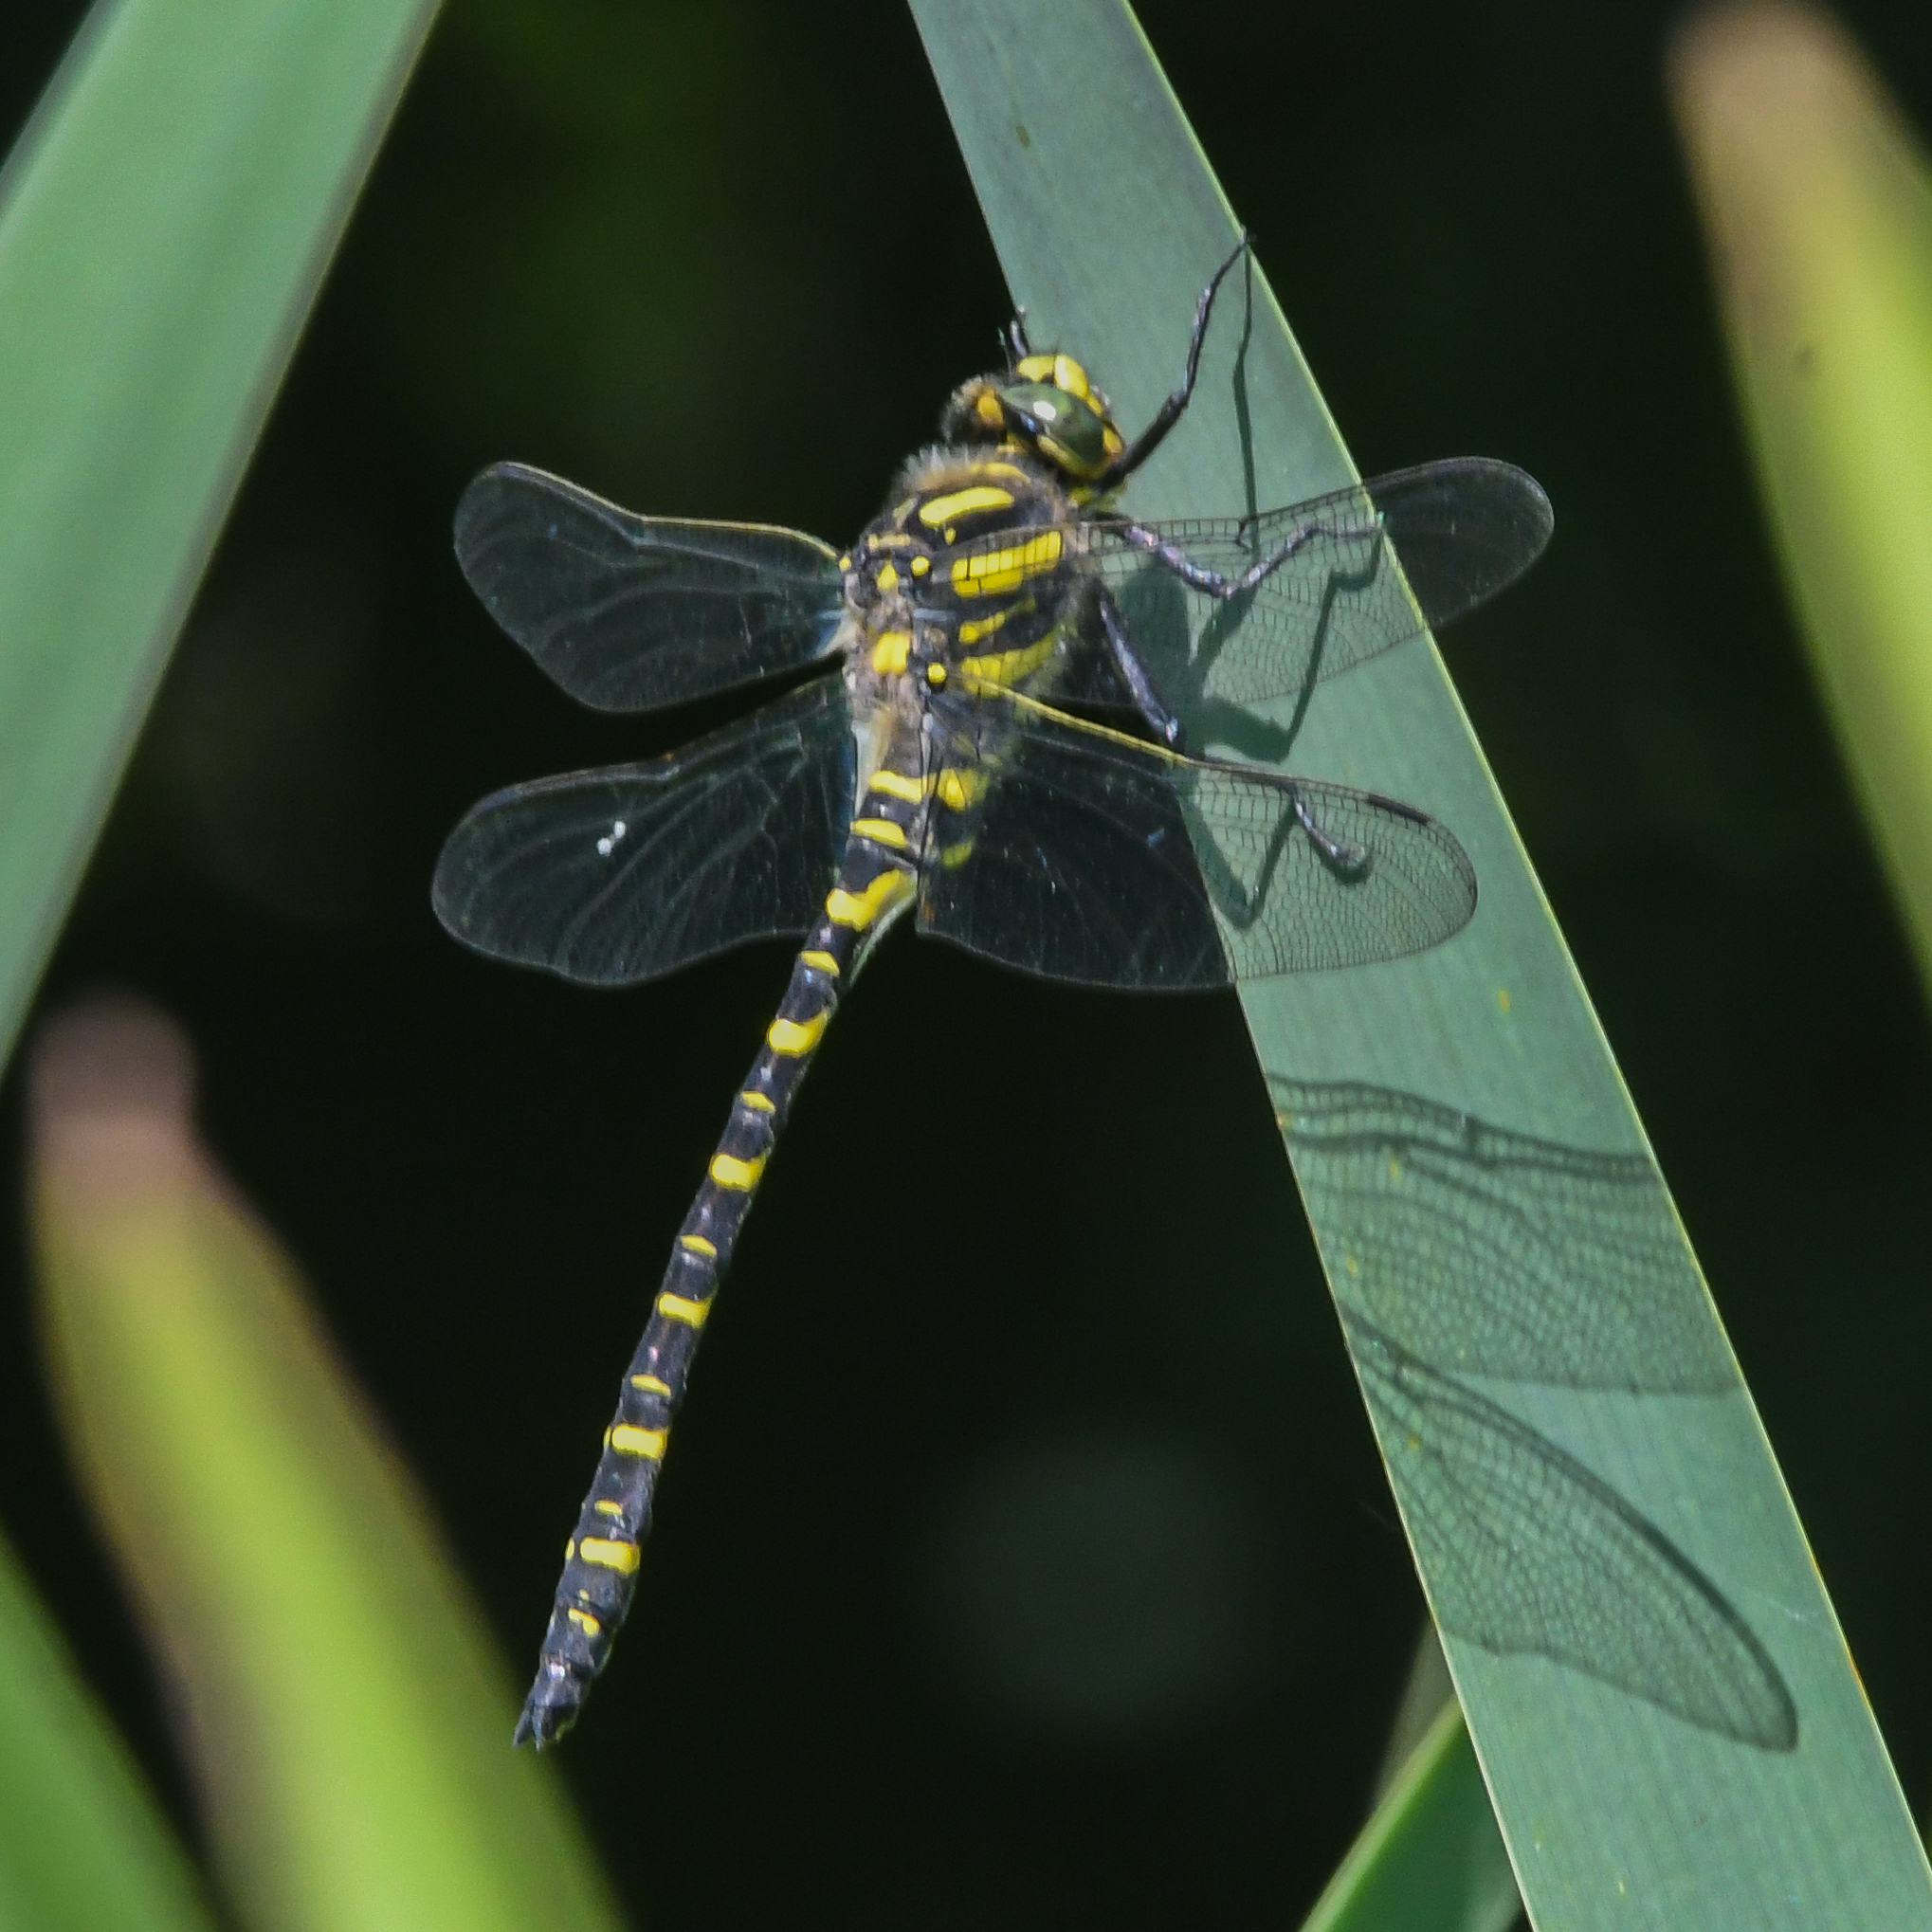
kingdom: Animalia
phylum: Arthropoda
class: Insecta
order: Odonata
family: Cordulegastridae
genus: Cordulegaster
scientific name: Cordulegaster boltonii
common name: Golden-ringed dragonfly
